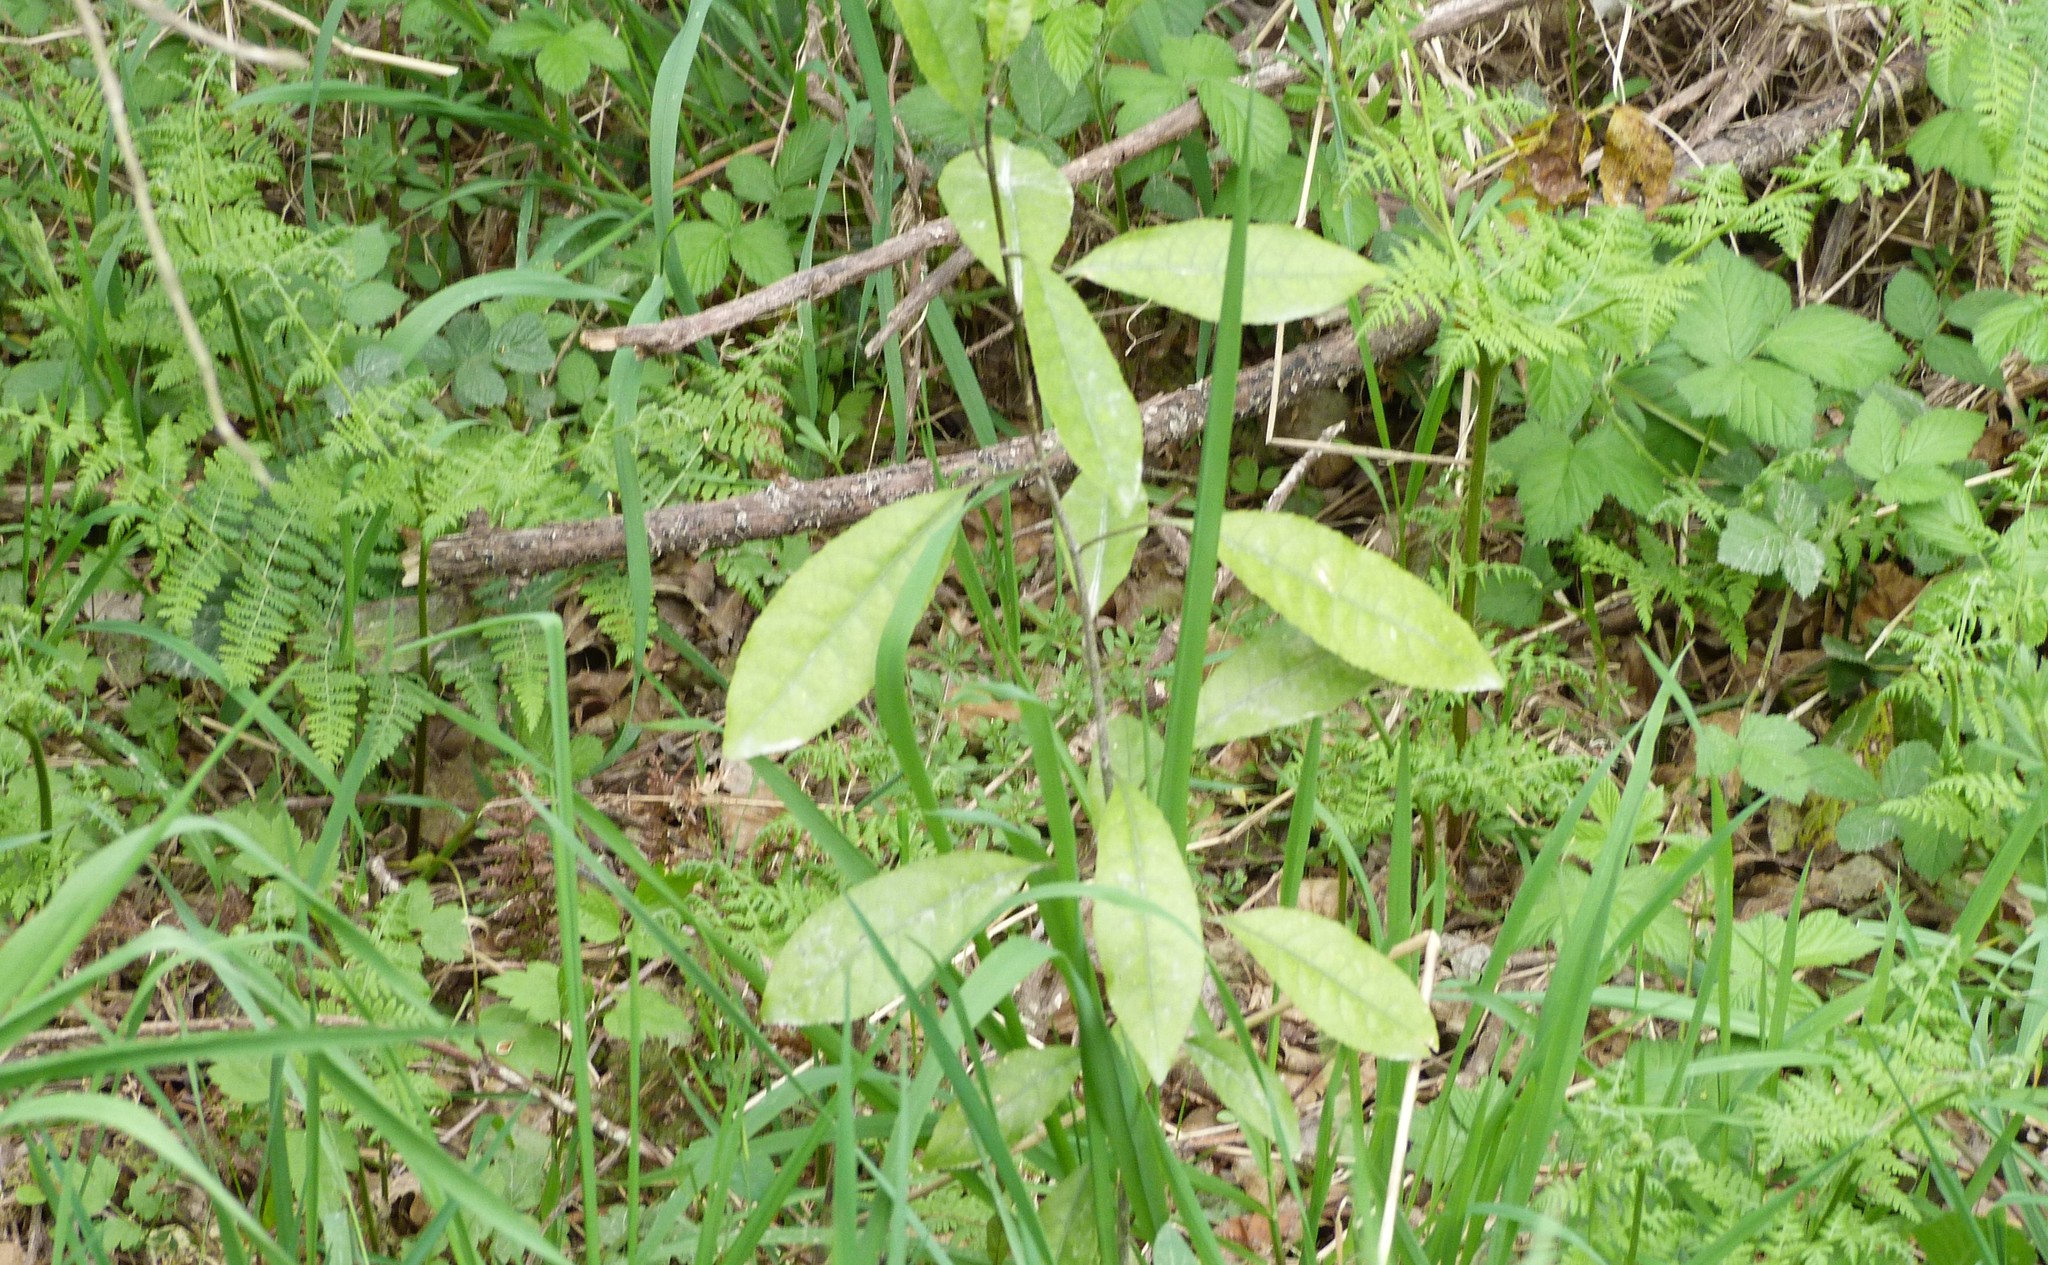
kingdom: Plantae
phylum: Tracheophyta
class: Magnoliopsida
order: Malpighiales
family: Violaceae
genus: Melicytus
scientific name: Melicytus ramiflorus
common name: Mahoe
